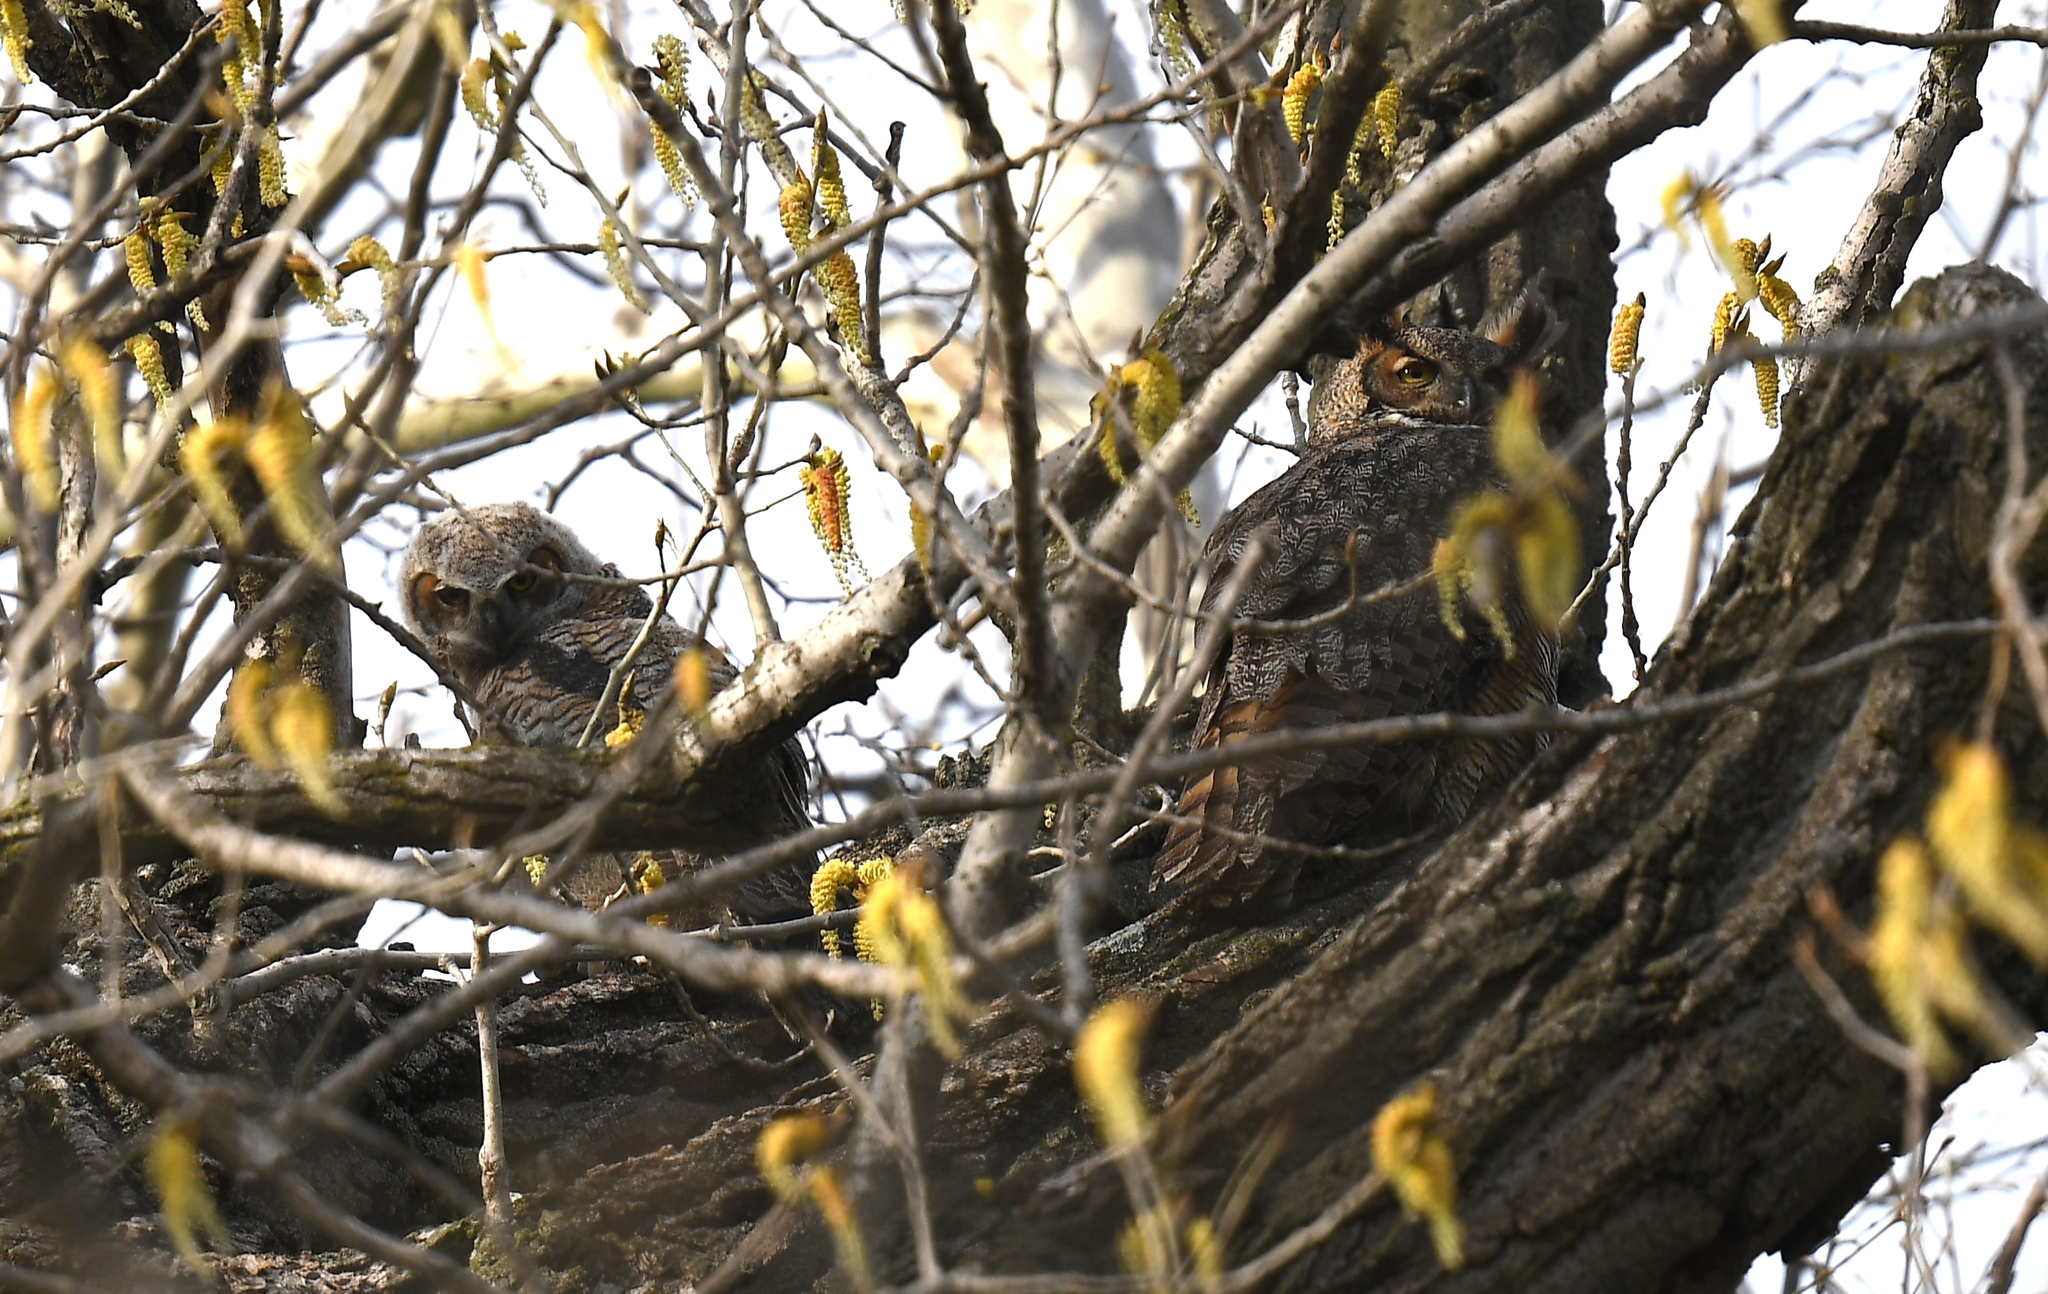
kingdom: Animalia
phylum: Chordata
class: Aves
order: Strigiformes
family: Strigidae
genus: Bubo
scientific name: Bubo virginianus
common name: Great horned owl
